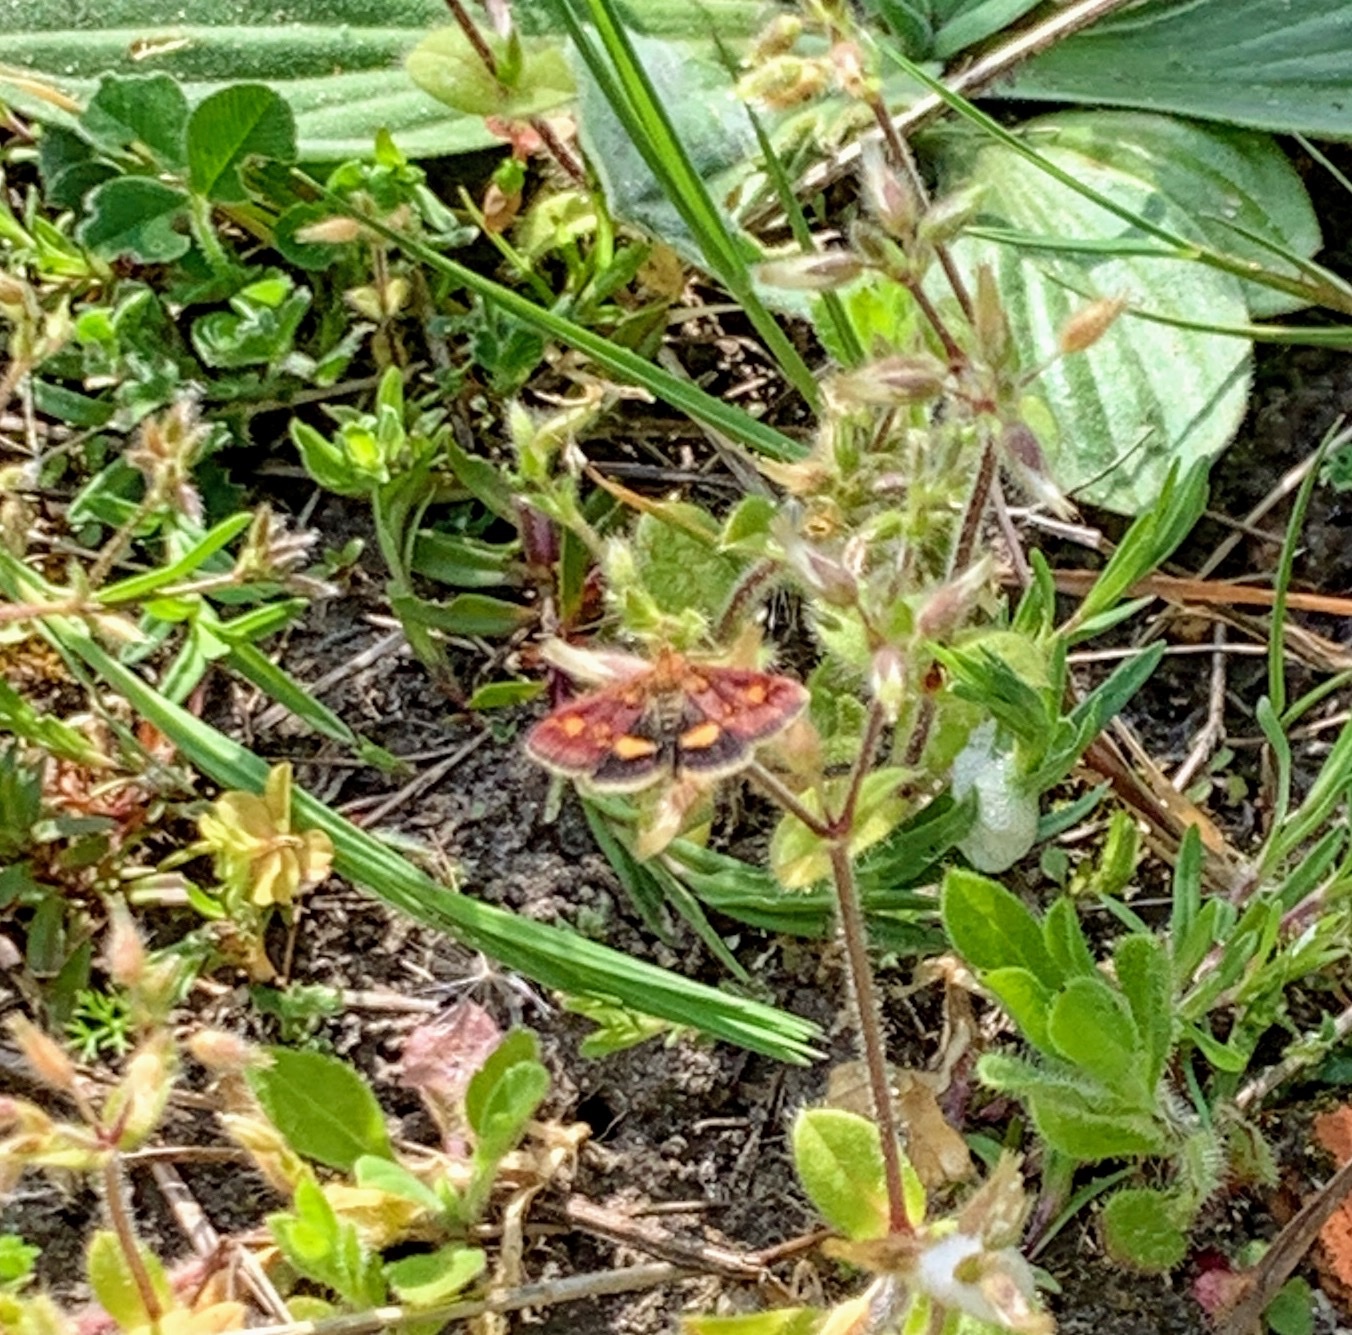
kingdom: Animalia
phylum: Arthropoda
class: Insecta
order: Lepidoptera
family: Crambidae
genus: Pyrausta
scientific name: Pyrausta aurata
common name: Small purple & gold
